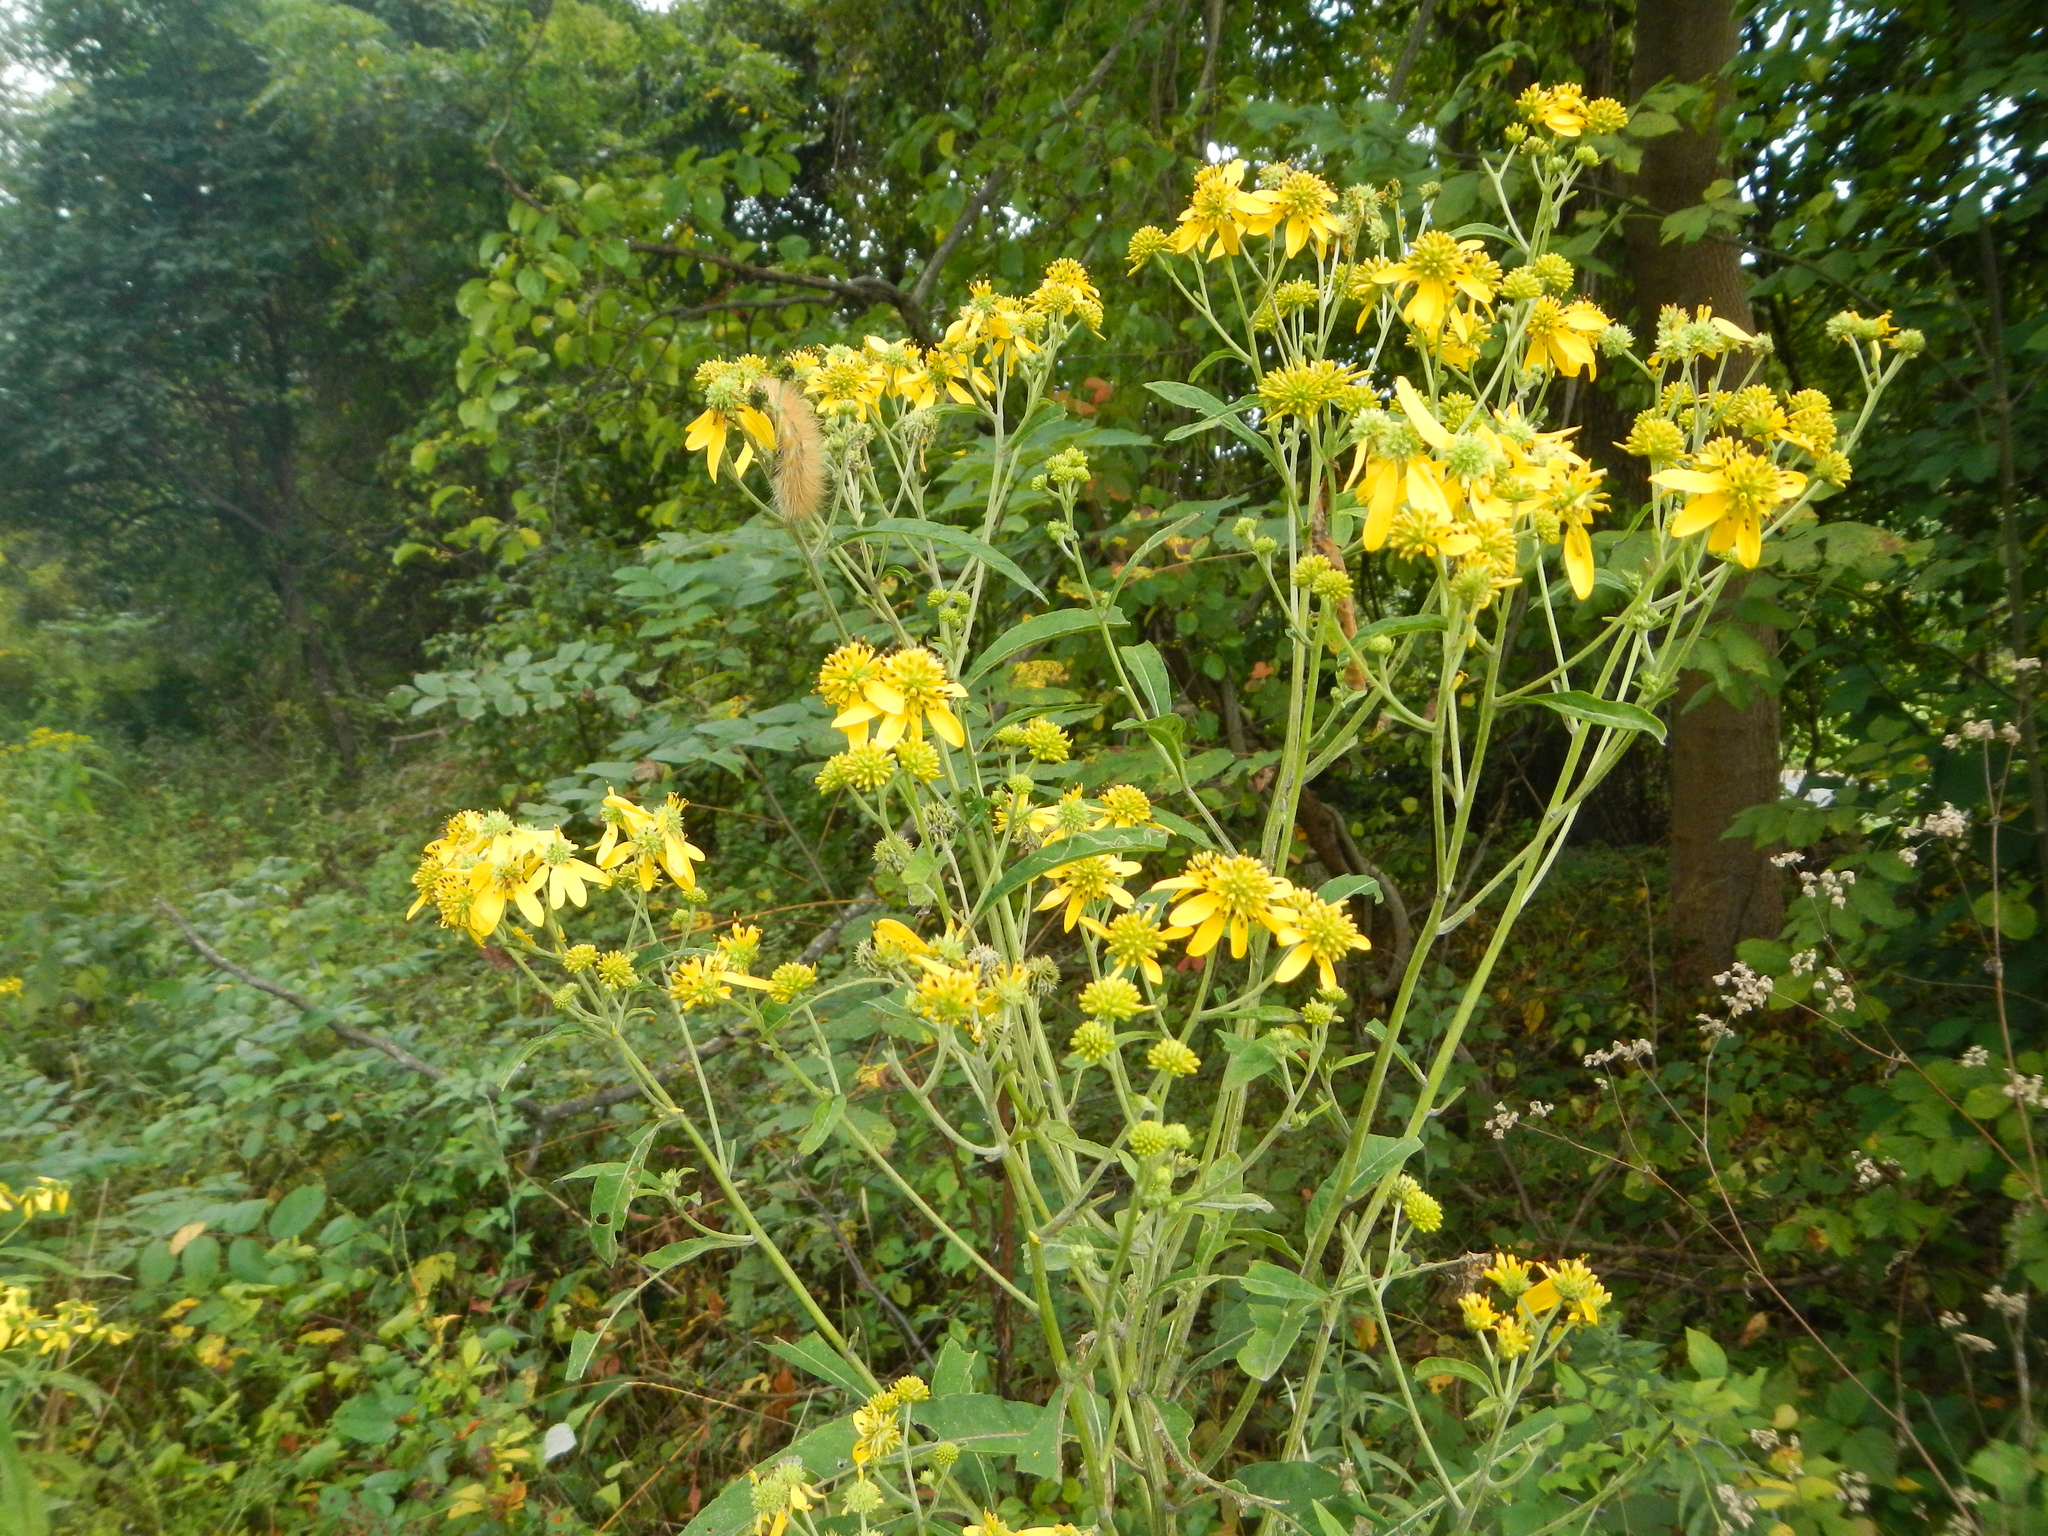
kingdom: Plantae
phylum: Tracheophyta
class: Magnoliopsida
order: Asterales
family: Asteraceae
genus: Verbesina
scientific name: Verbesina alternifolia
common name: Wingstem
